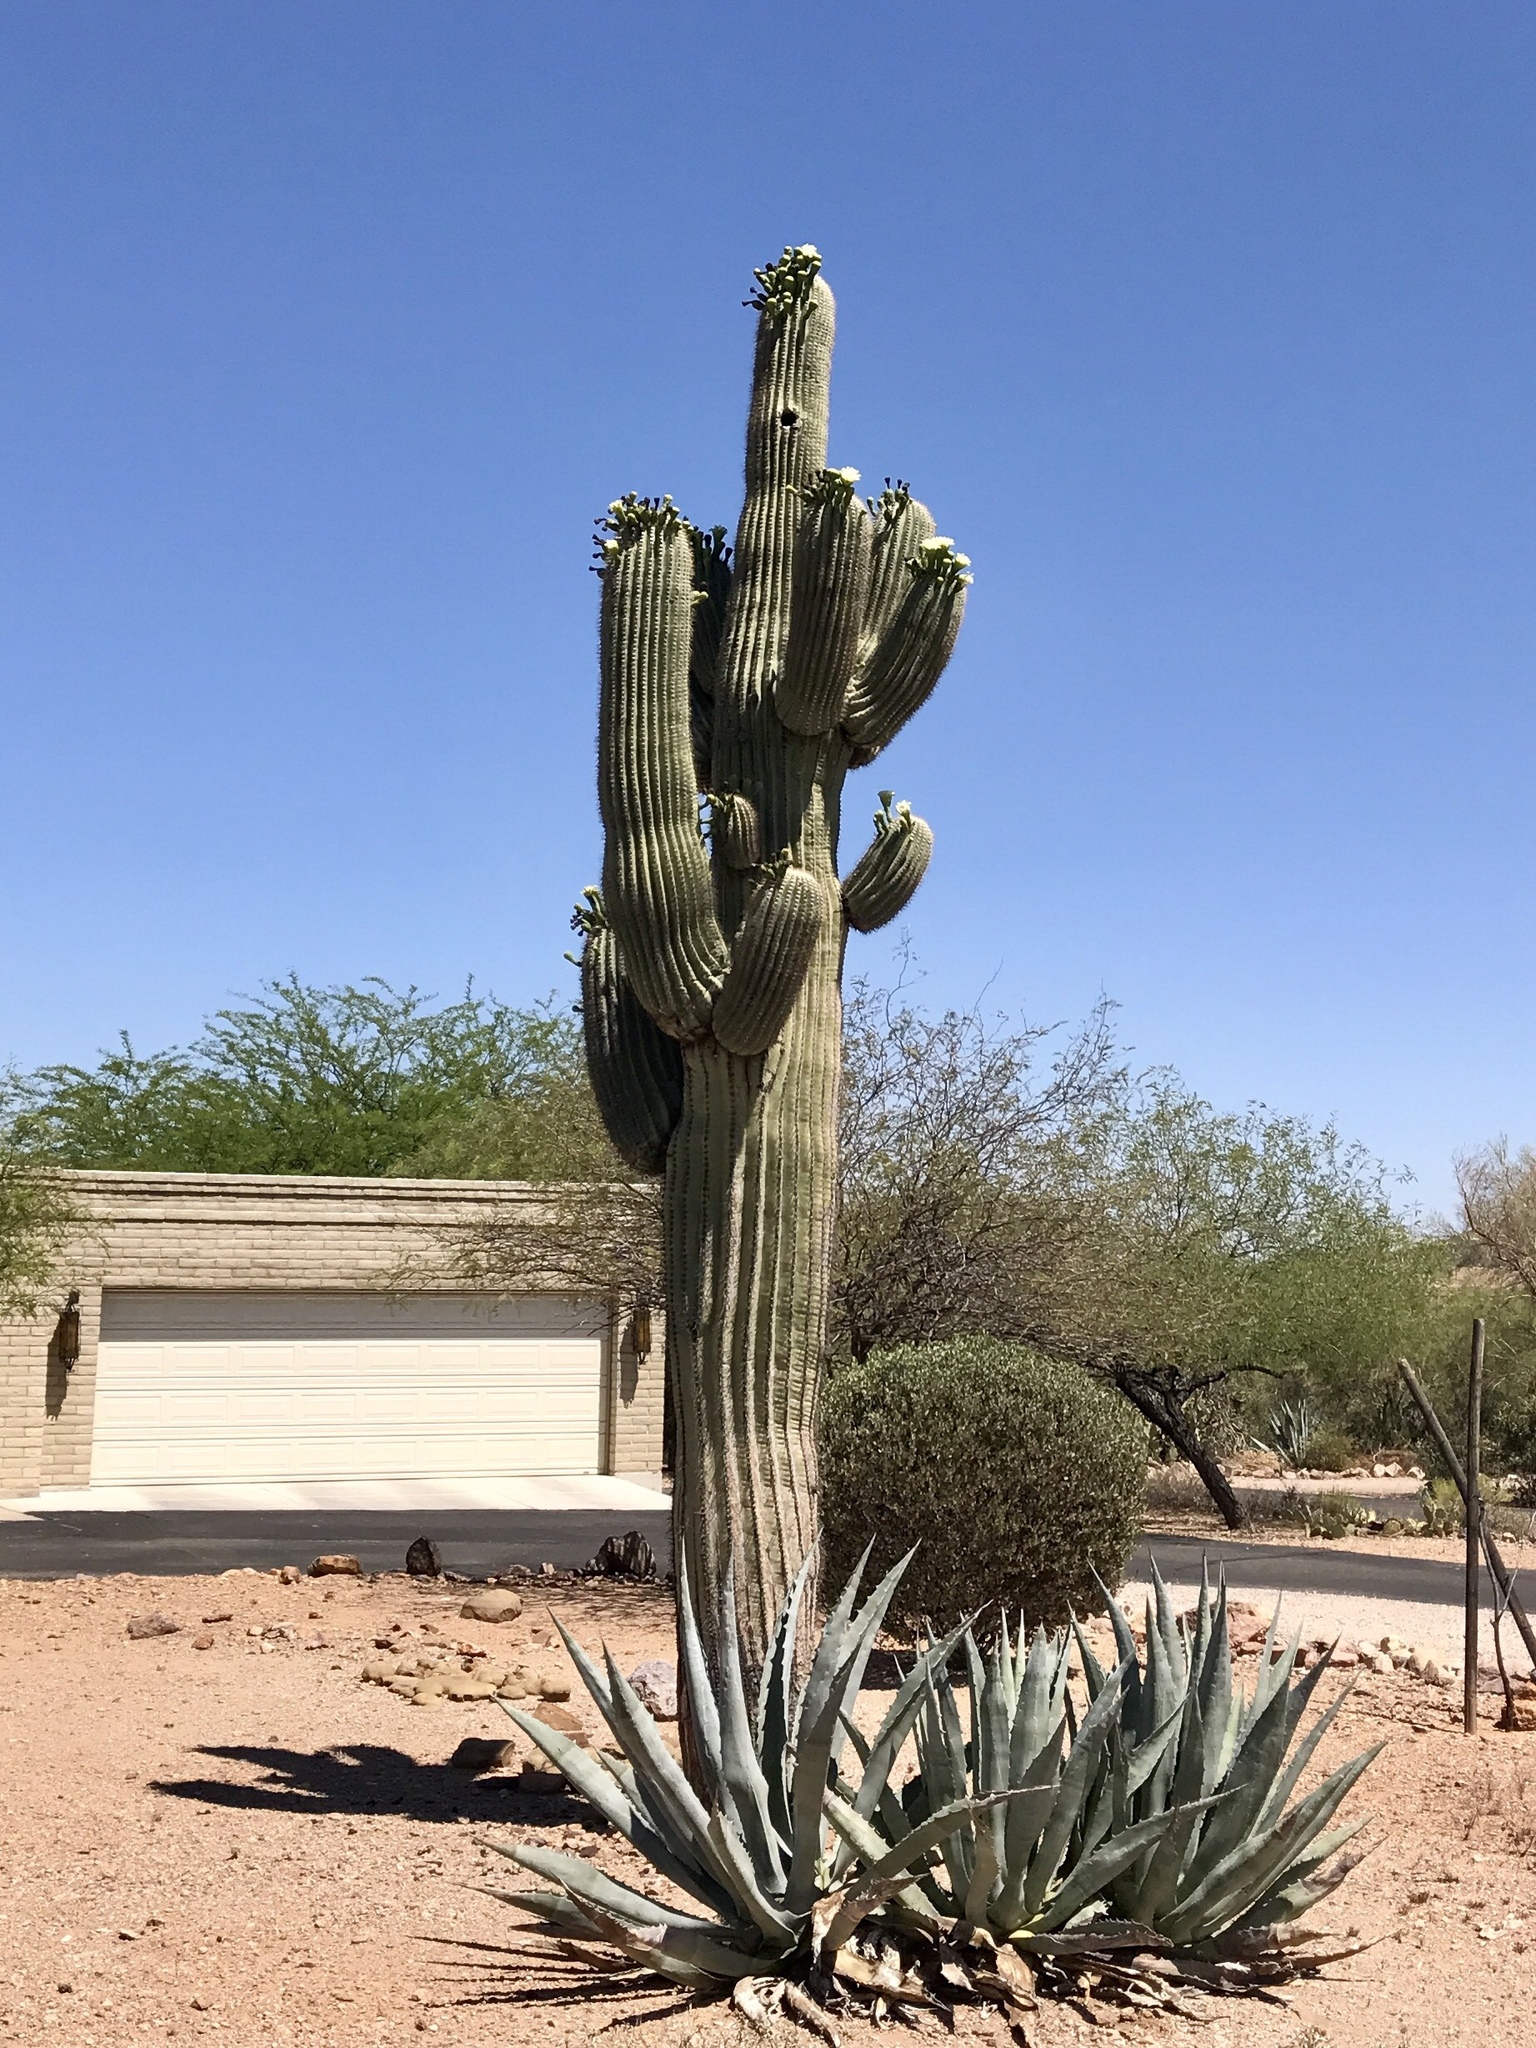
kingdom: Plantae
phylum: Tracheophyta
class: Magnoliopsida
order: Caryophyllales
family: Cactaceae
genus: Carnegiea
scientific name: Carnegiea gigantea
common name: Saguaro
